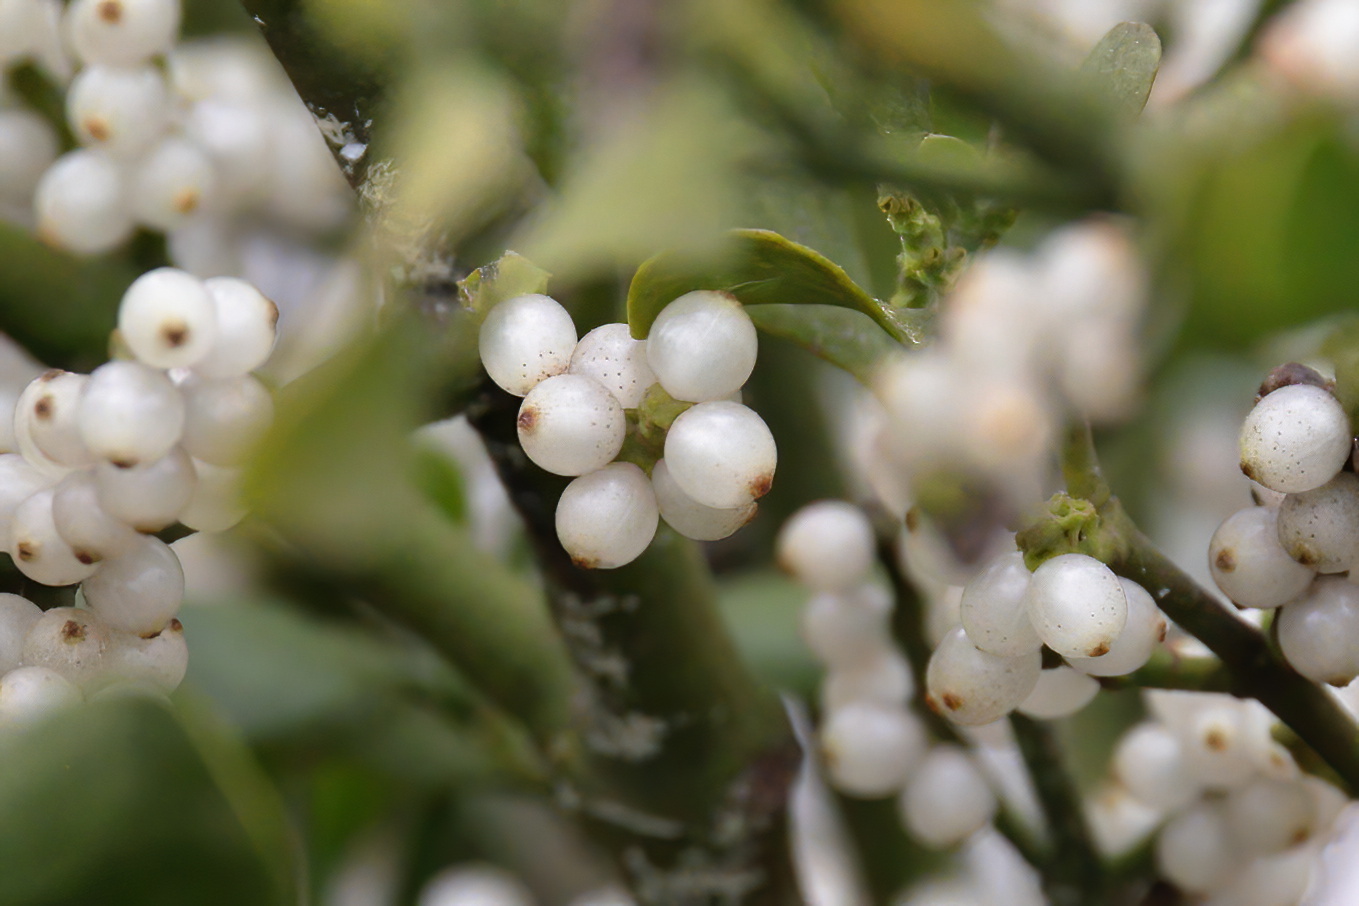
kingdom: Plantae
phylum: Tracheophyta
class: Magnoliopsida
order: Santalales
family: Viscaceae
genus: Phoradendron
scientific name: Phoradendron leucarpum
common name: Pacific mistletoe
